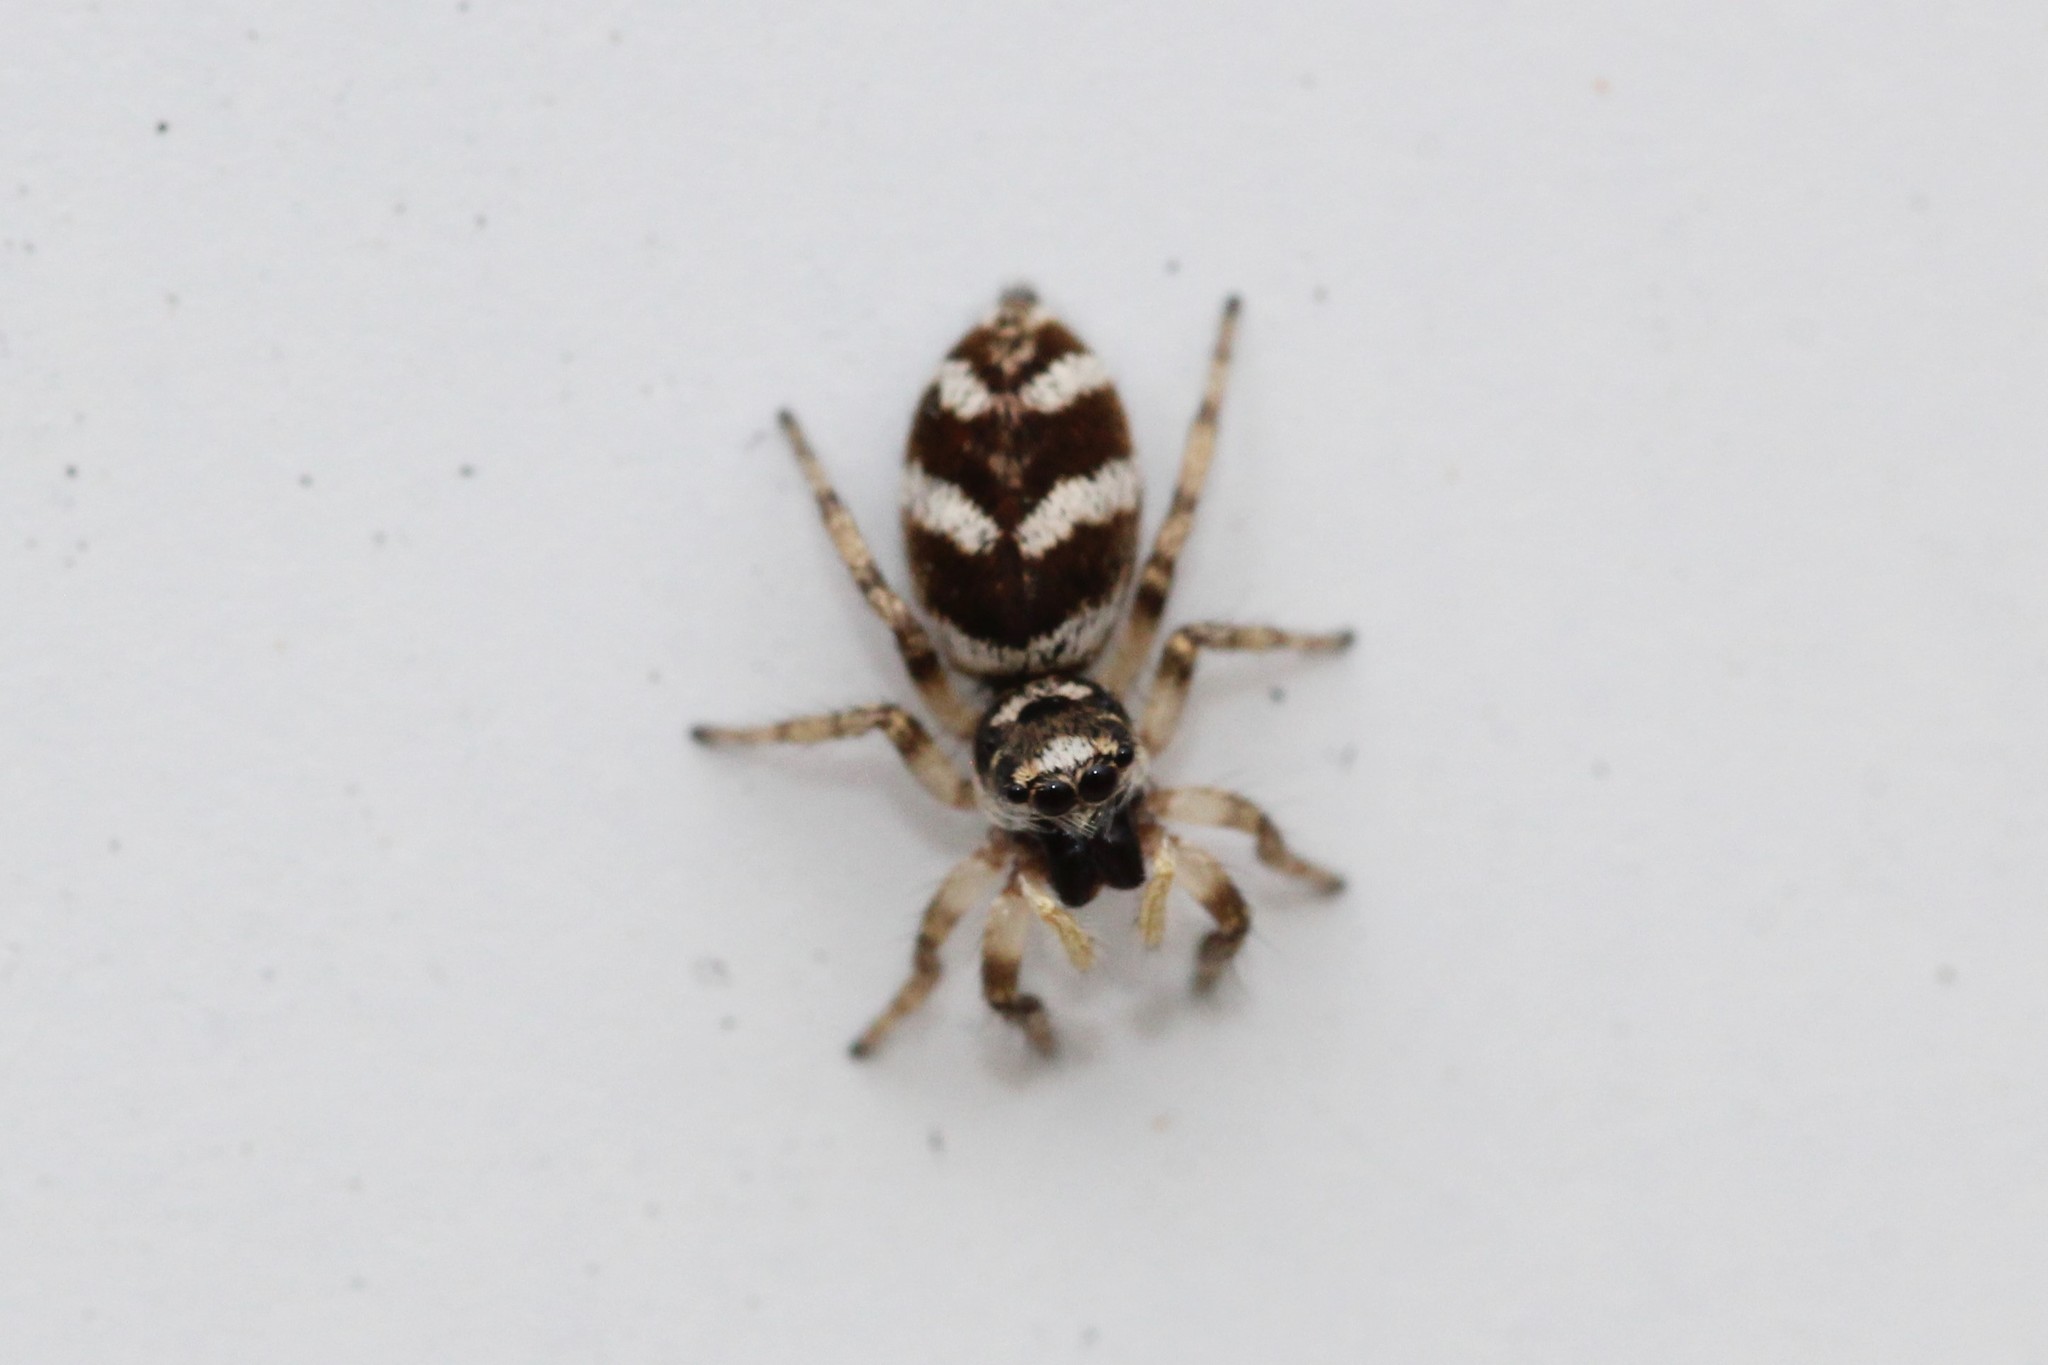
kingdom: Animalia
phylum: Arthropoda
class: Arachnida
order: Araneae
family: Salticidae
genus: Salticus
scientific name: Salticus scenicus
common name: Zebra jumper
